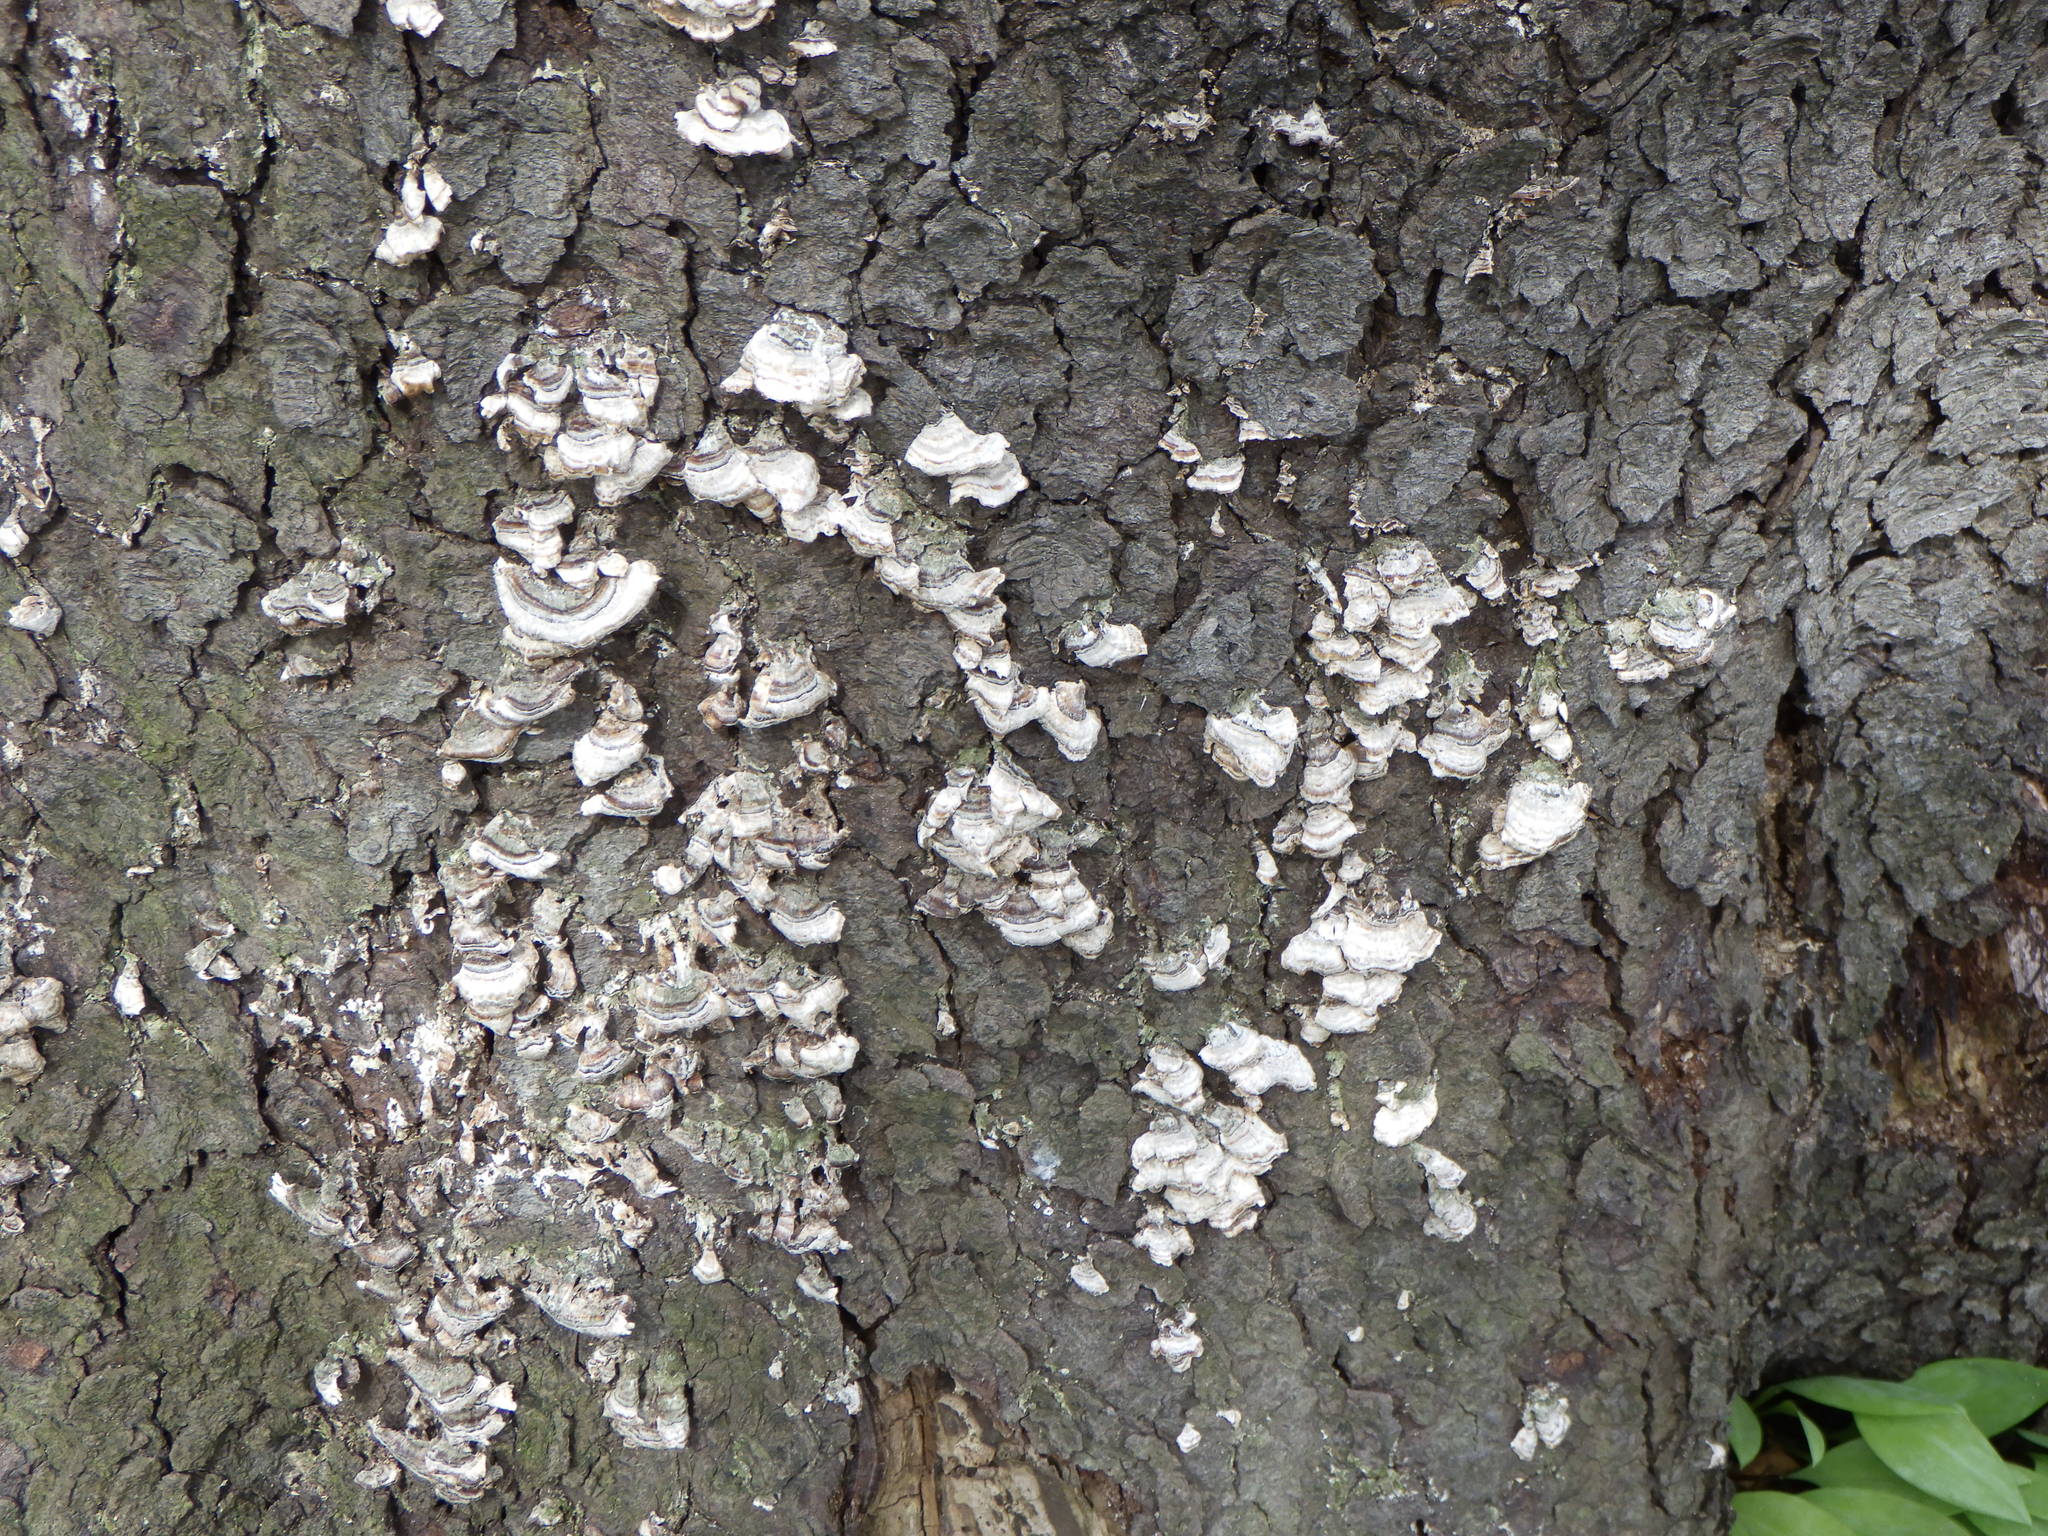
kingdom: Fungi
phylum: Basidiomycota
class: Agaricomycetes
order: Hymenochaetales
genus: Trichaptum
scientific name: Trichaptum abietinum
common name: Purplepore bracket
